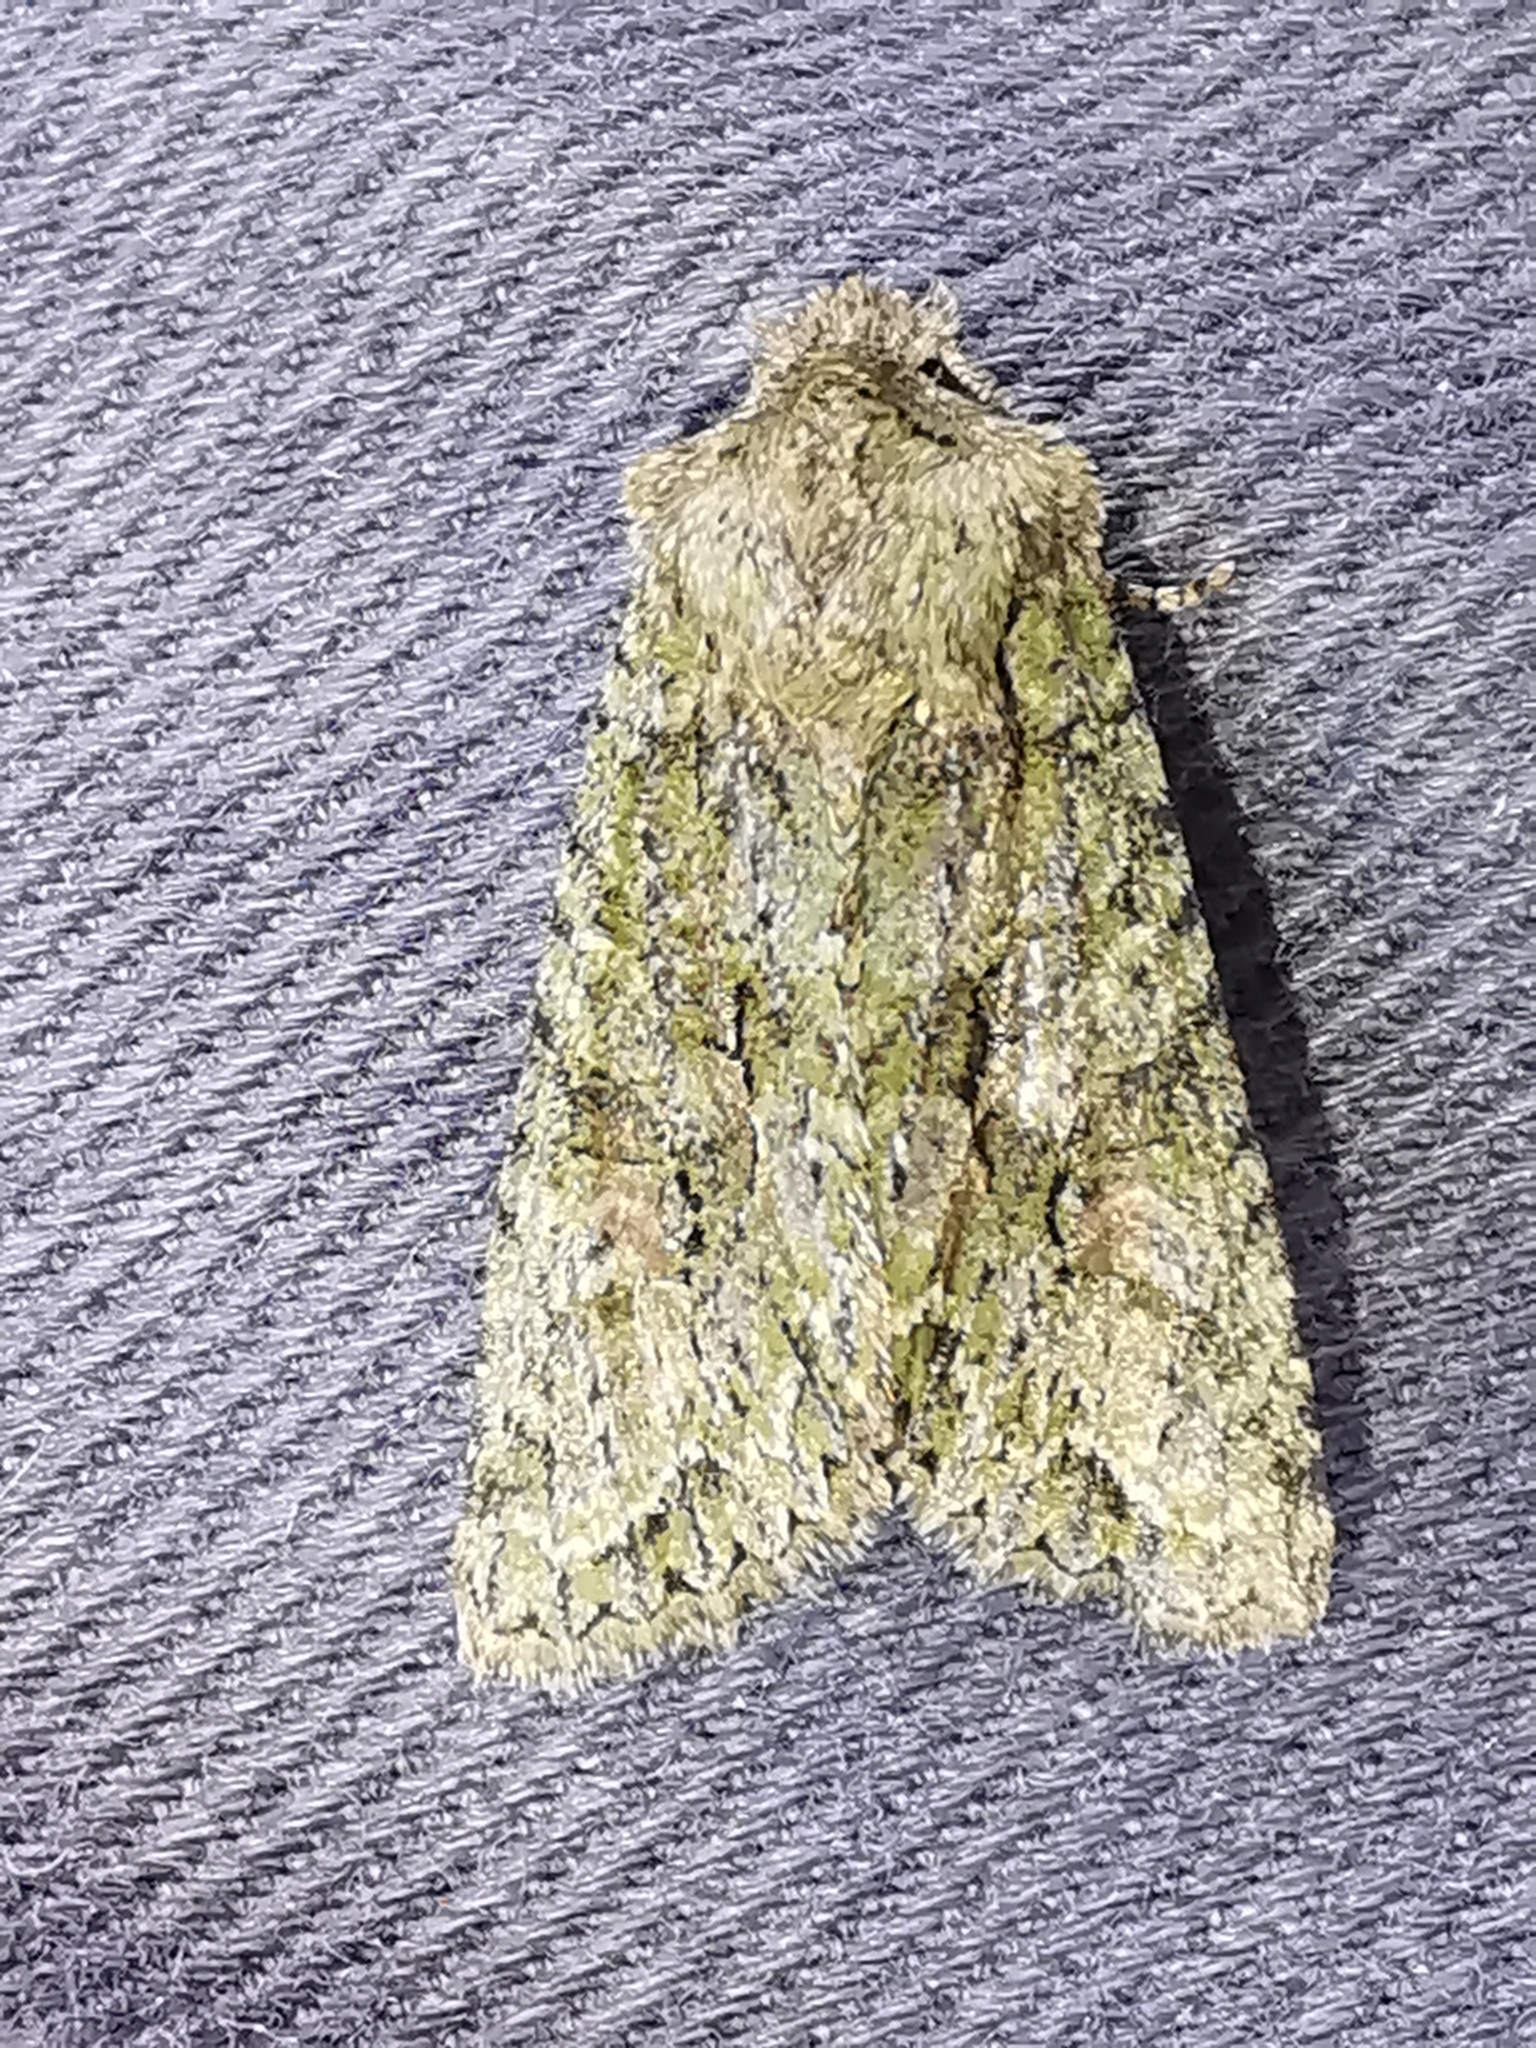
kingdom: Animalia
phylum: Arthropoda
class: Insecta
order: Lepidoptera
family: Noctuidae
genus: Dryobotodes
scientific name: Dryobotodes eremita
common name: Brindled green
